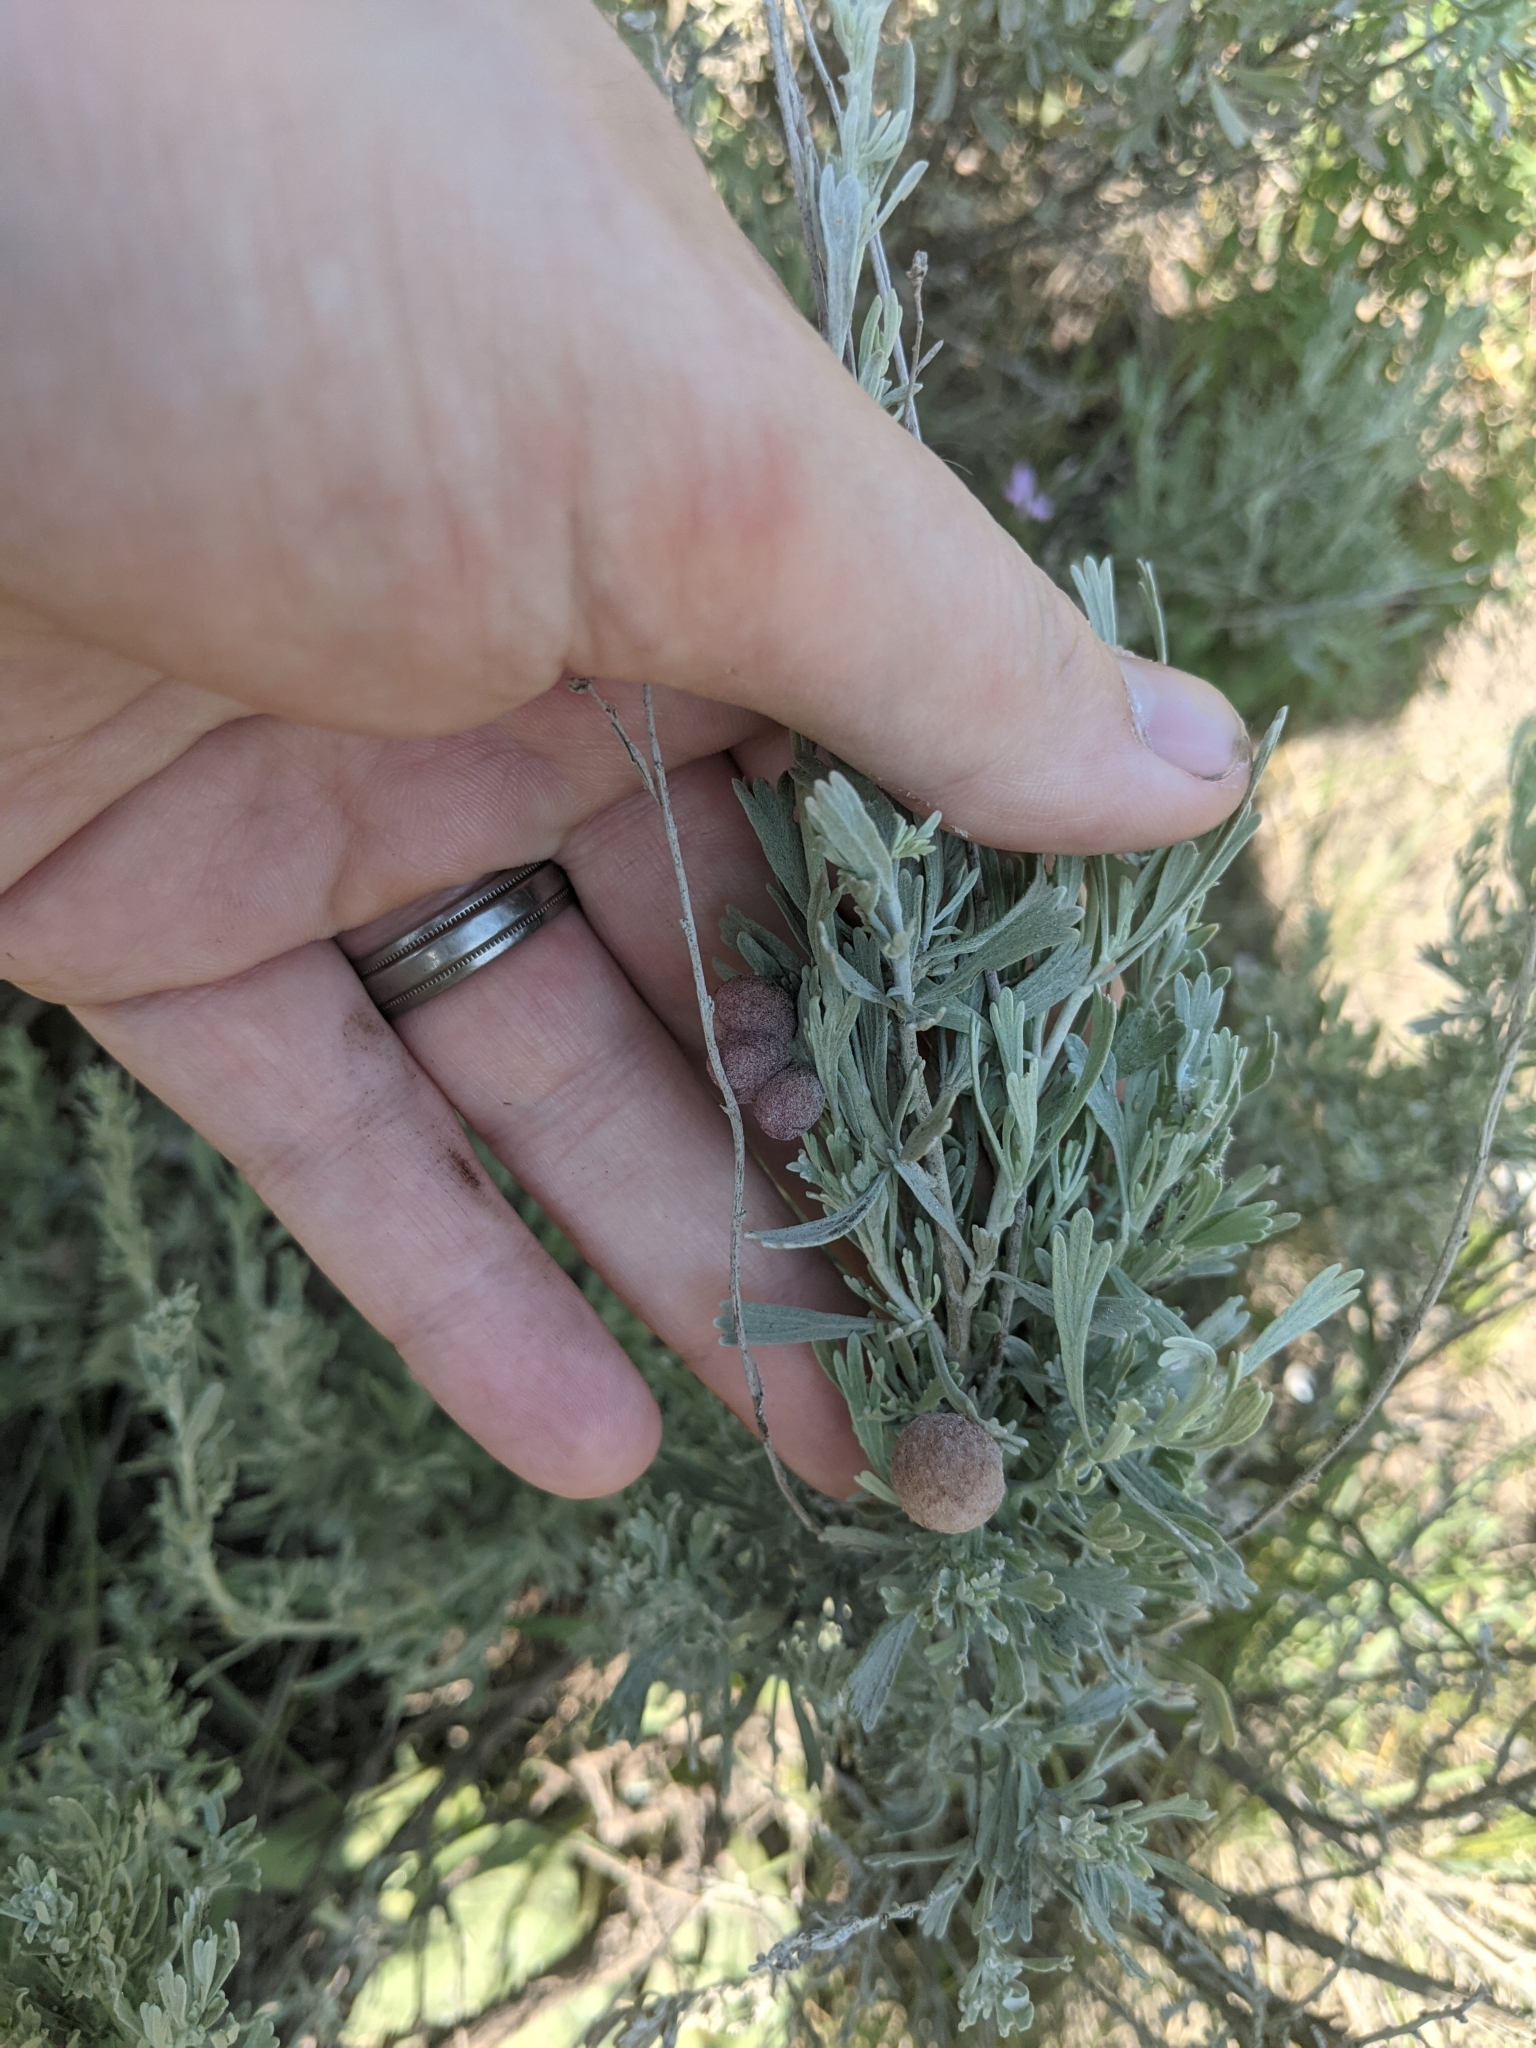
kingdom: Animalia
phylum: Arthropoda
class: Insecta
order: Diptera
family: Cecidomyiidae
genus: Rhopalomyia
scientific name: Rhopalomyia pomum
